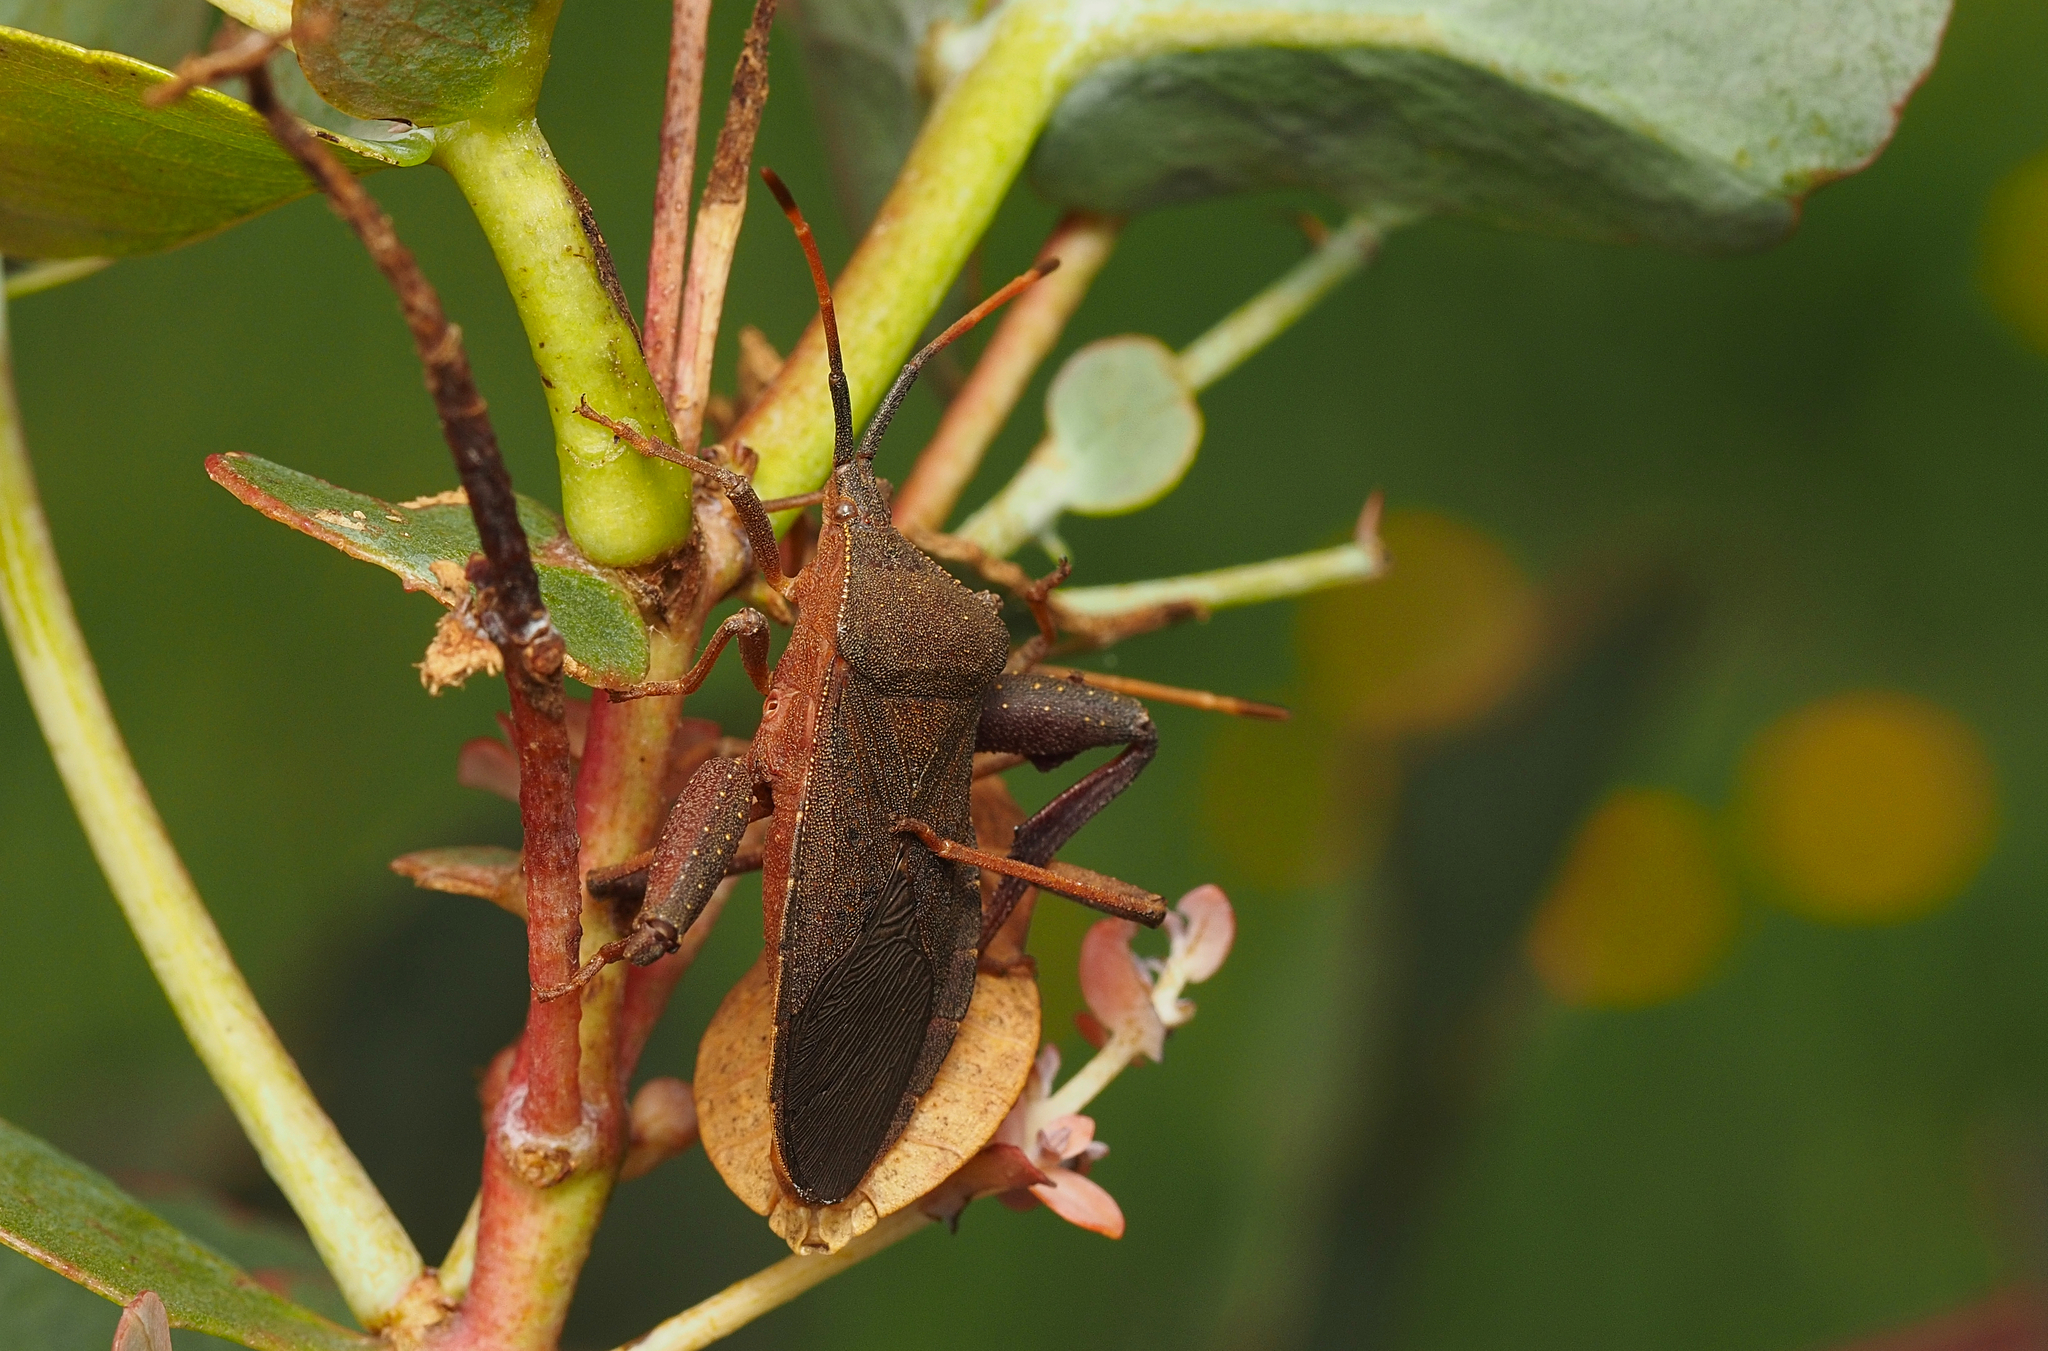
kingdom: Animalia
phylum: Arthropoda
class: Insecta
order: Hemiptera
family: Coreidae
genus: Amorbus
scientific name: Amorbus rubiginosus
